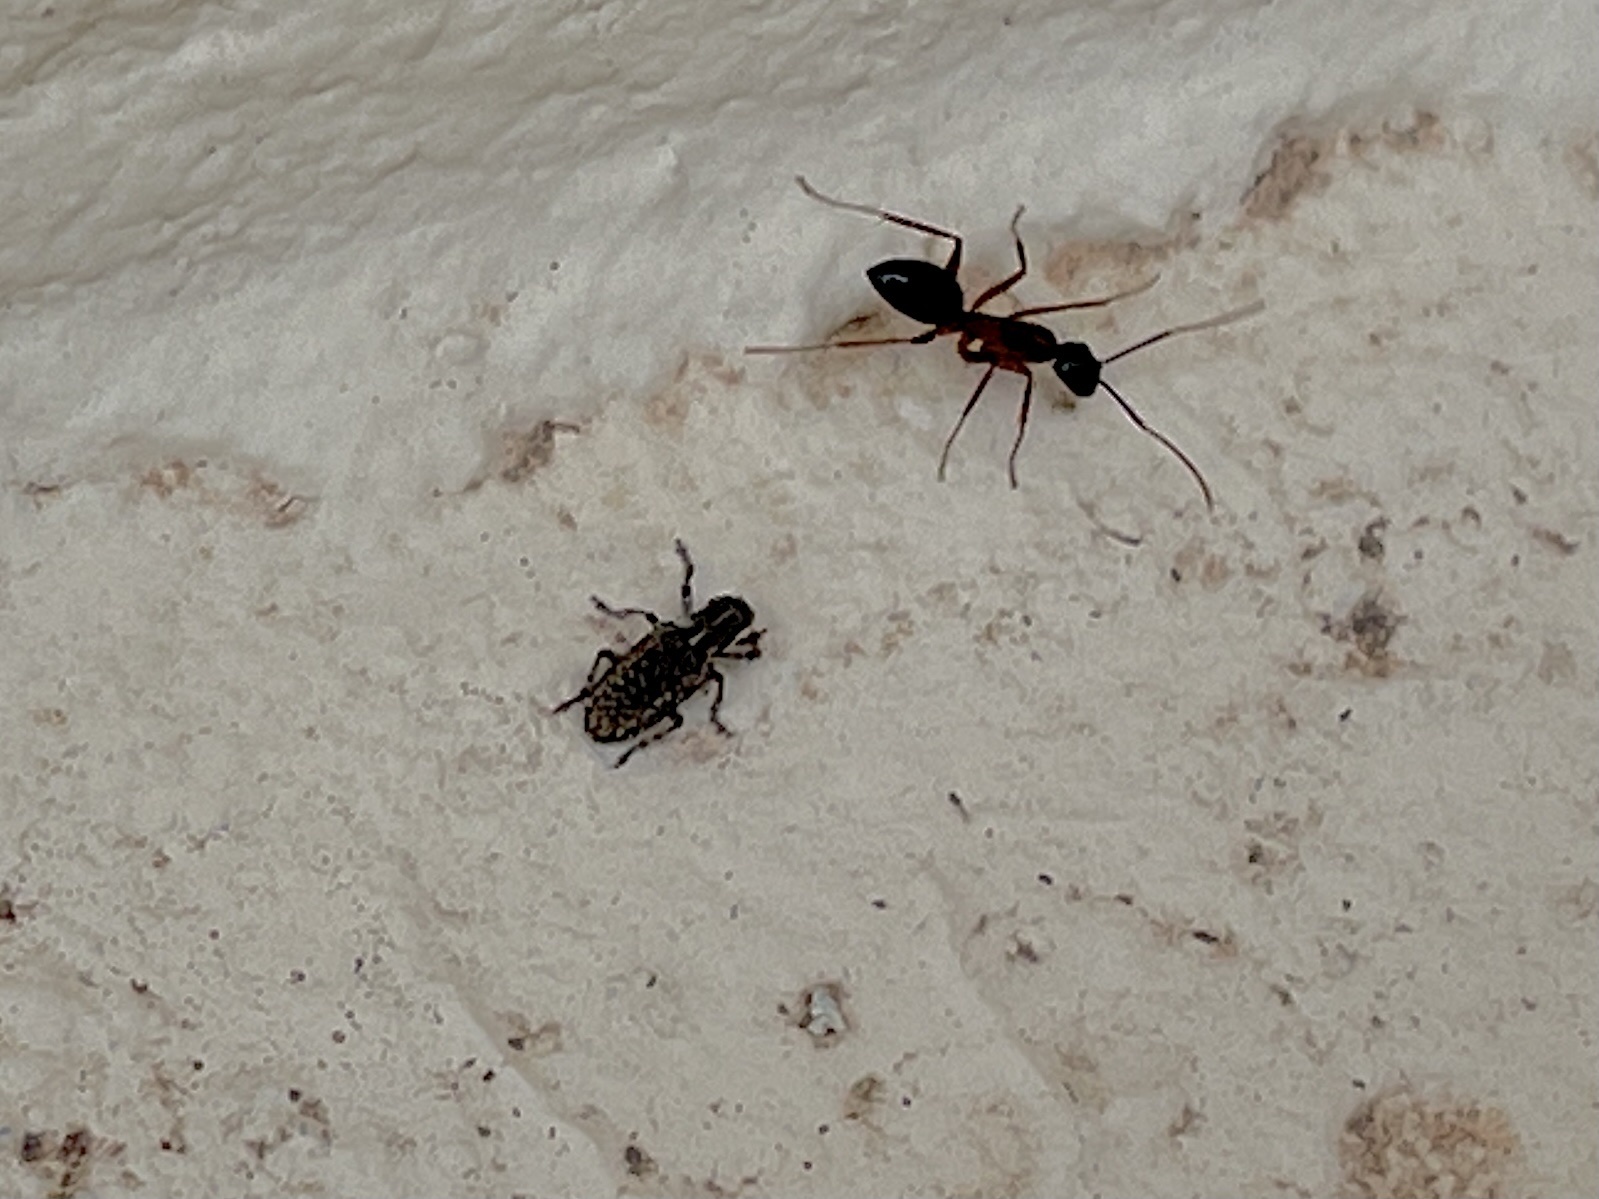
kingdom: Animalia
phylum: Arthropoda
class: Insecta
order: Coleoptera
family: Curculionidae
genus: Sitones
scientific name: Sitones californius
